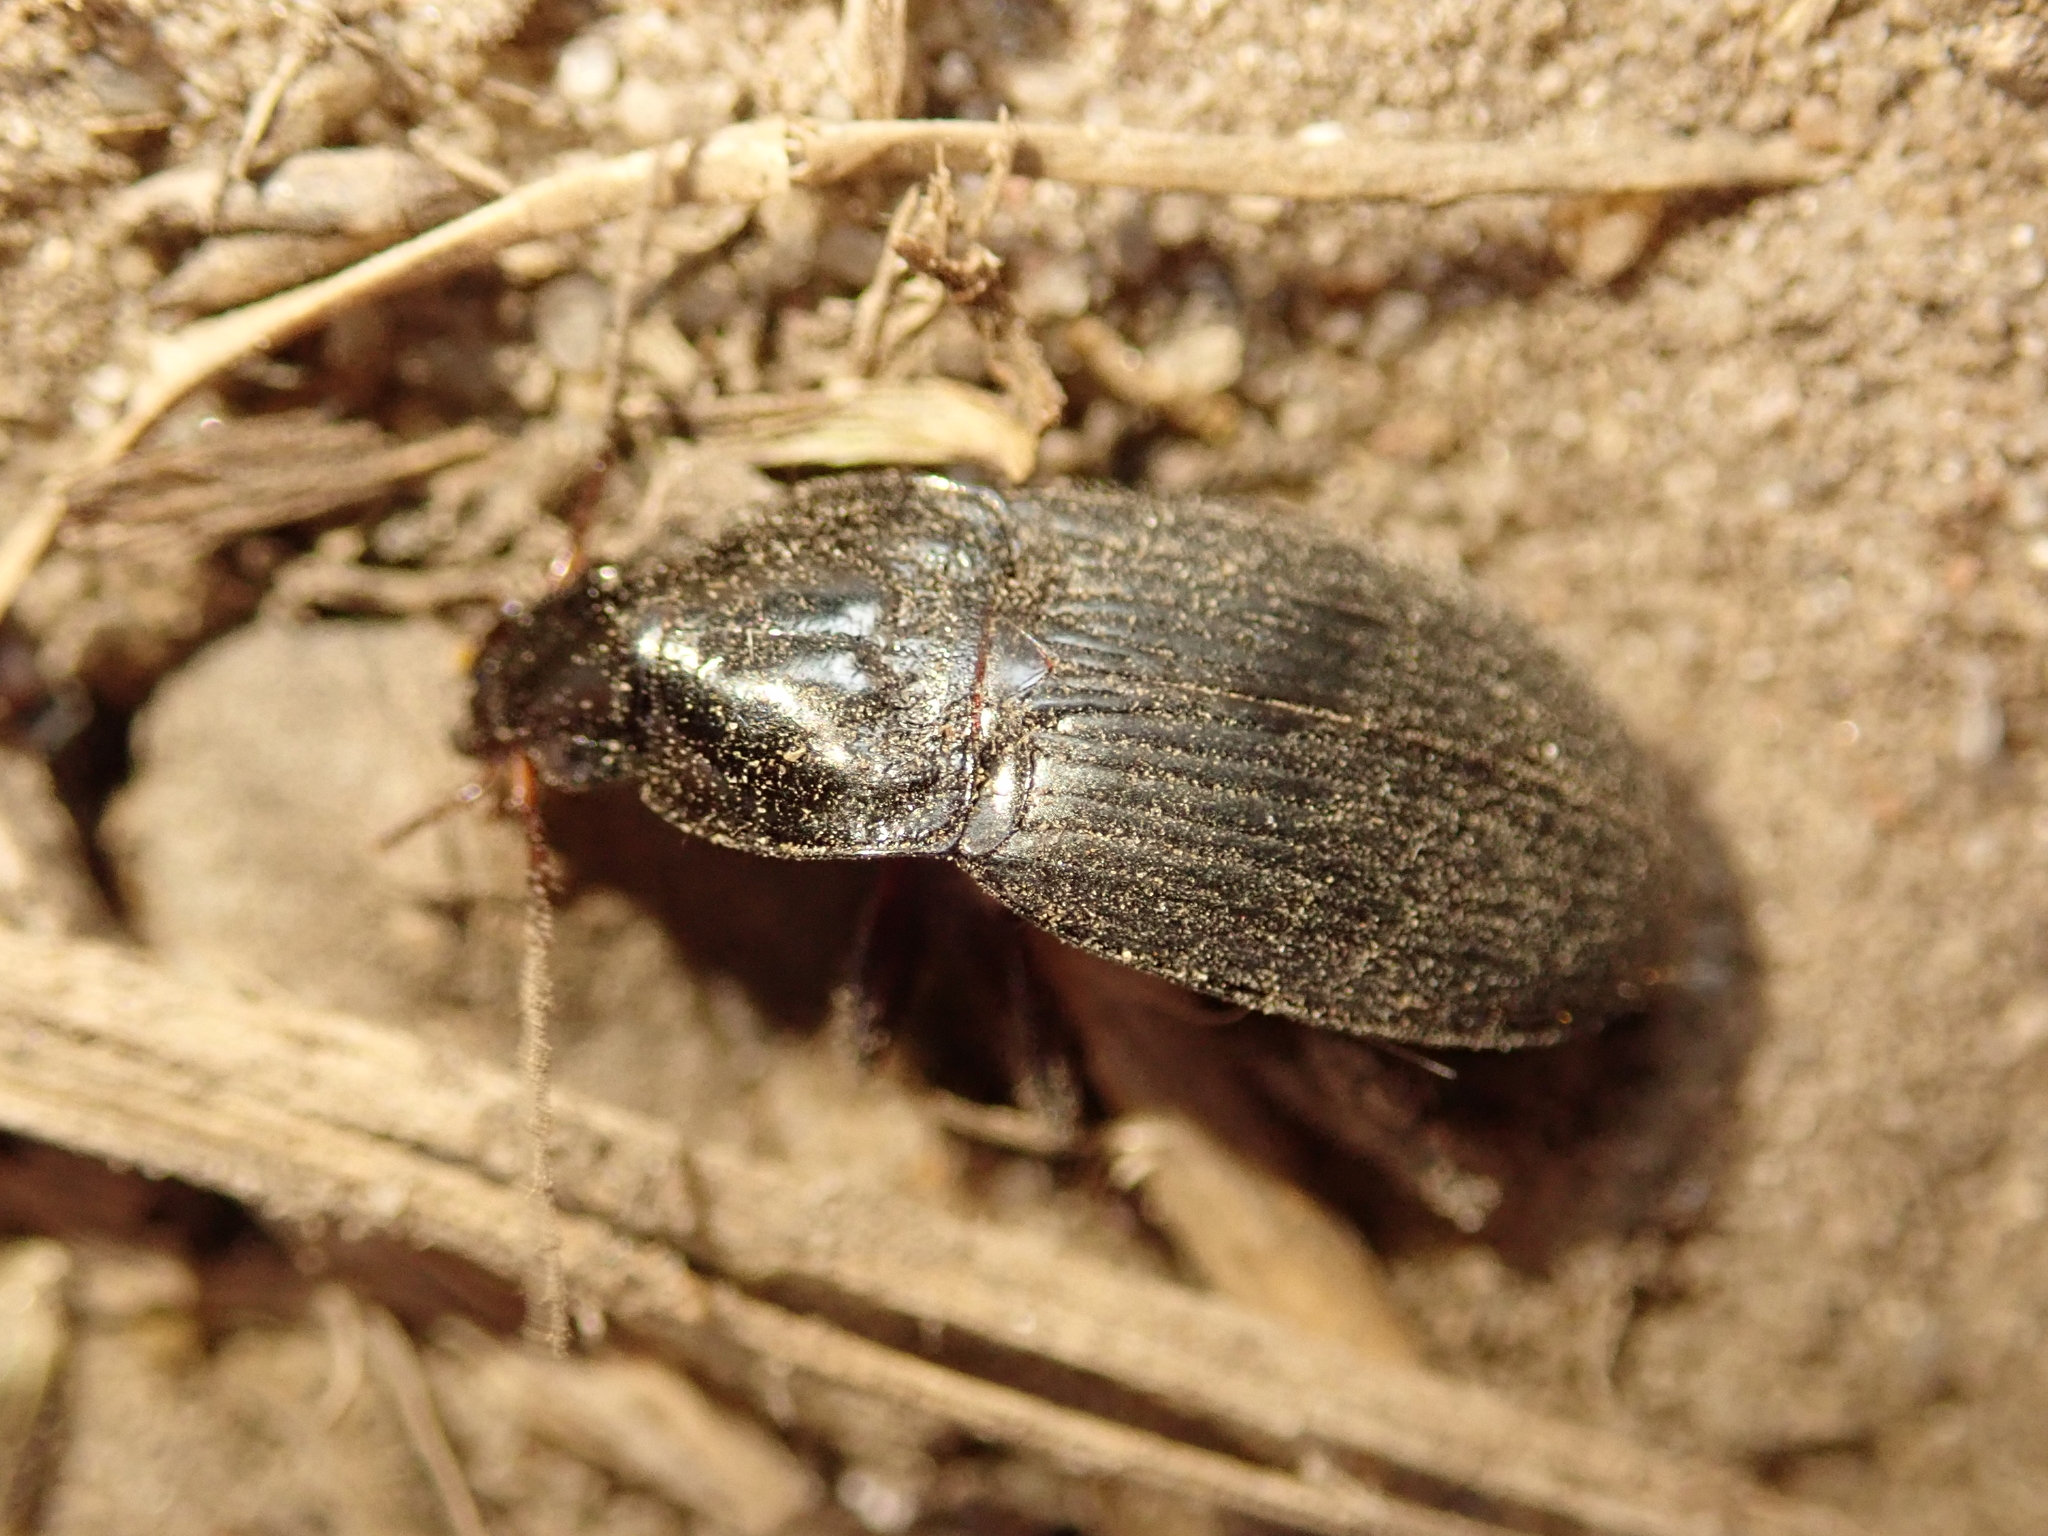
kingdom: Animalia
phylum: Arthropoda
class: Insecta
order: Coleoptera
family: Carabidae
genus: Calathus
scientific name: Calathus fuscipes
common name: Dark-footed harp ground beetle
